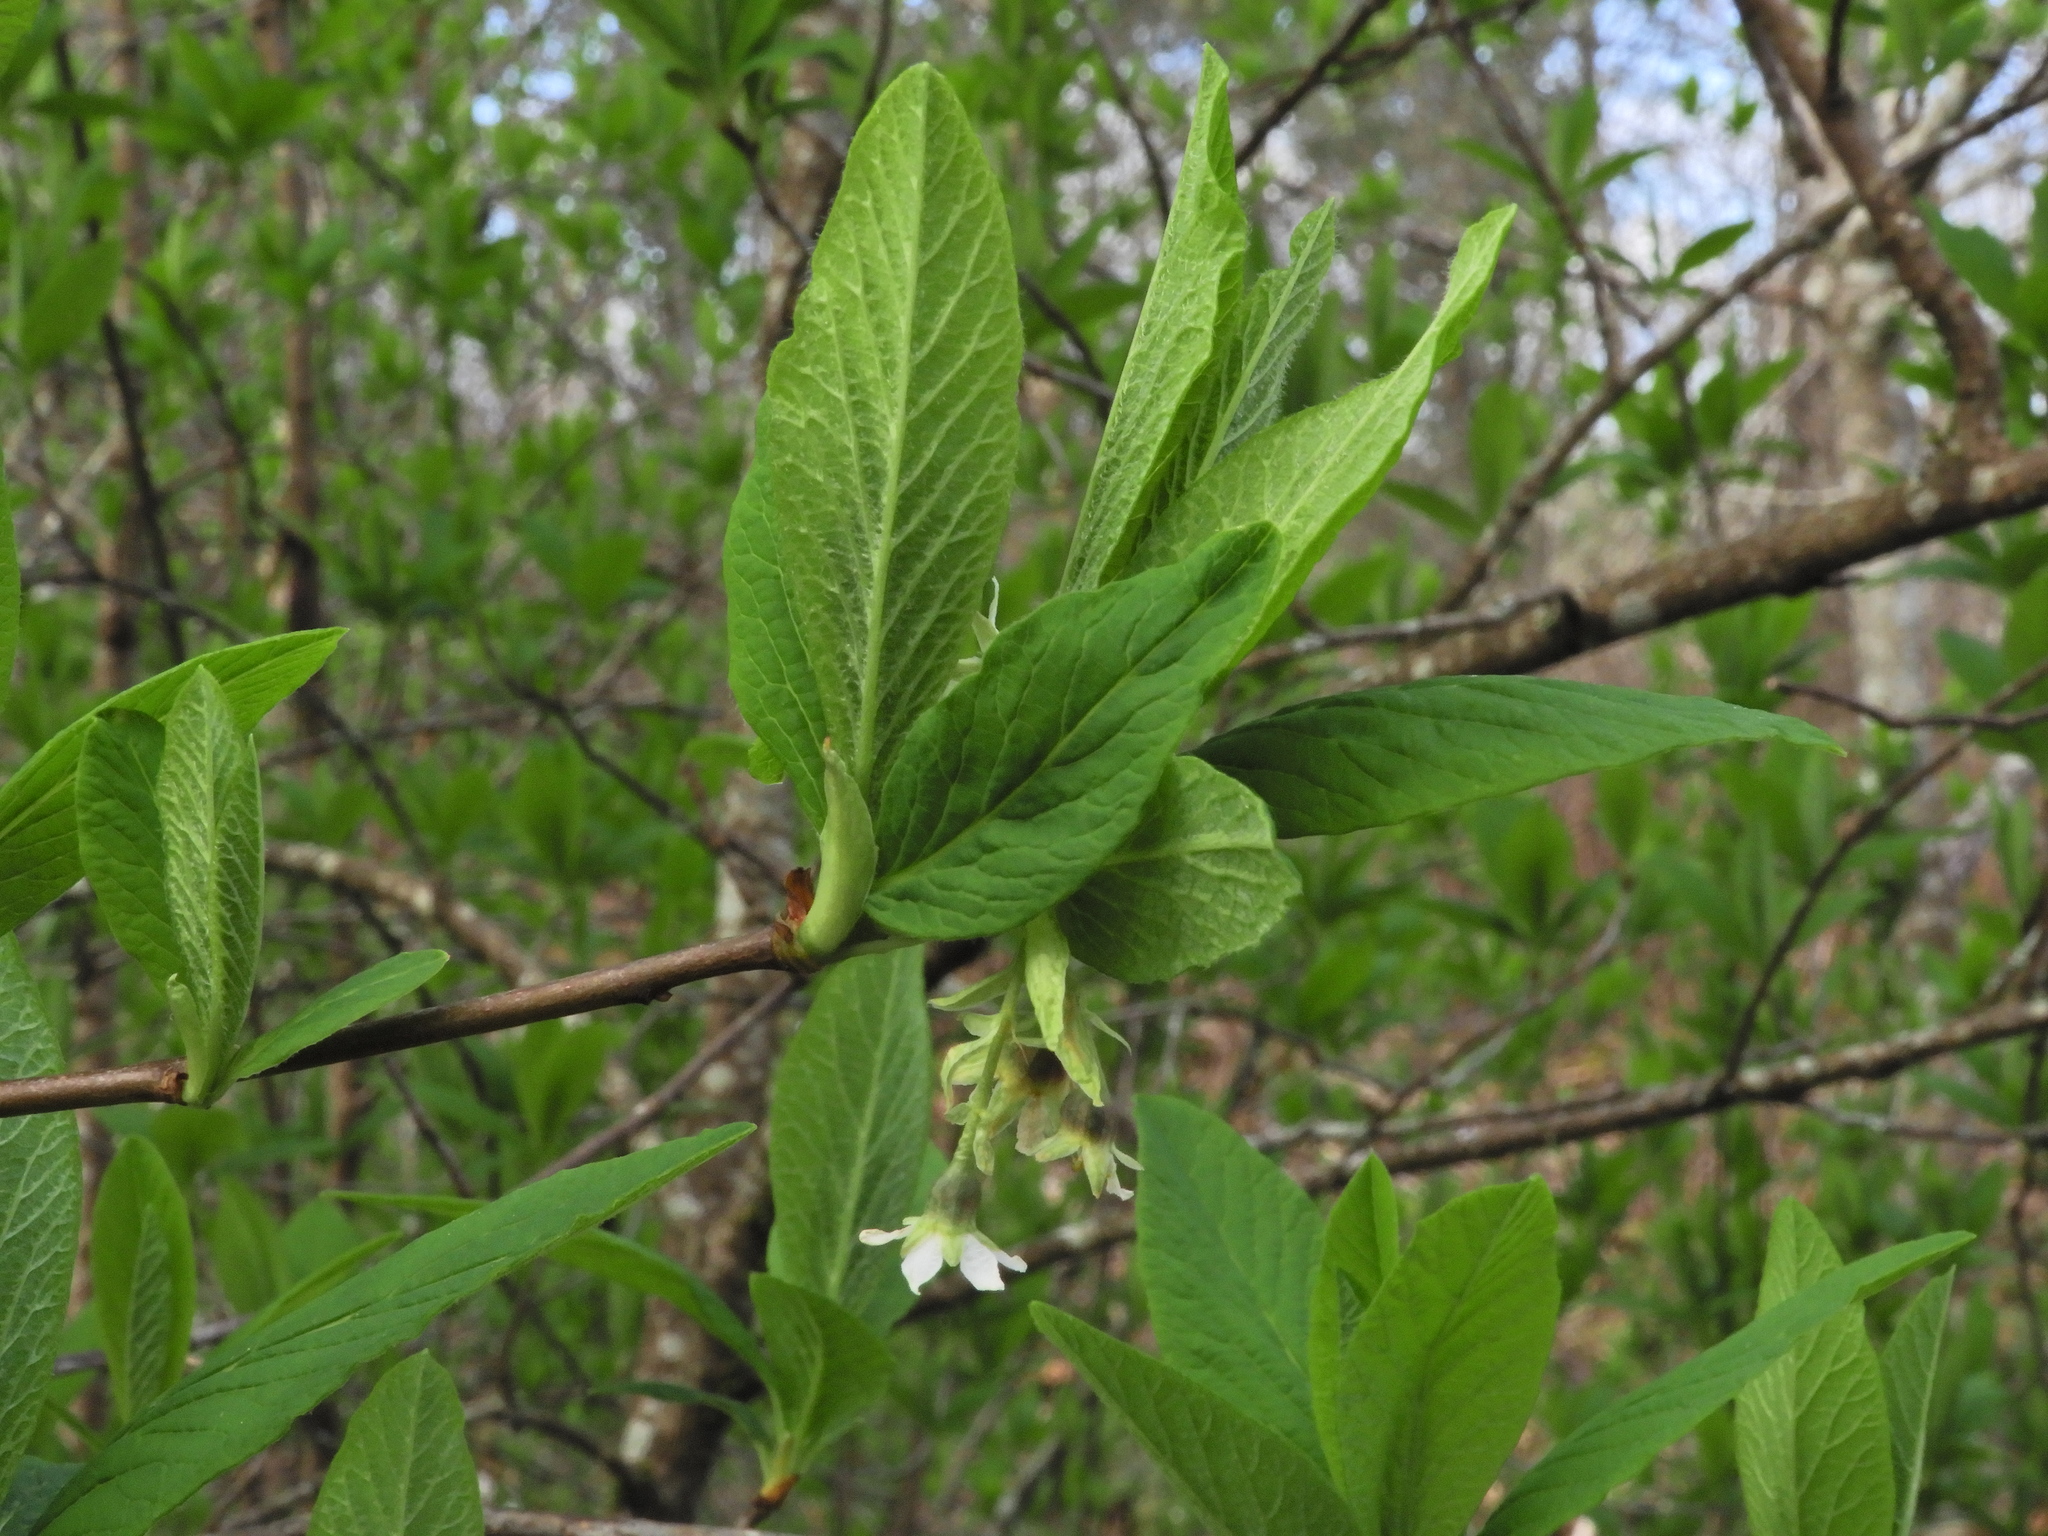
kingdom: Plantae
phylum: Tracheophyta
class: Magnoliopsida
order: Rosales
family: Rosaceae
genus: Oemleria
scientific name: Oemleria cerasiformis
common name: Osoberry
